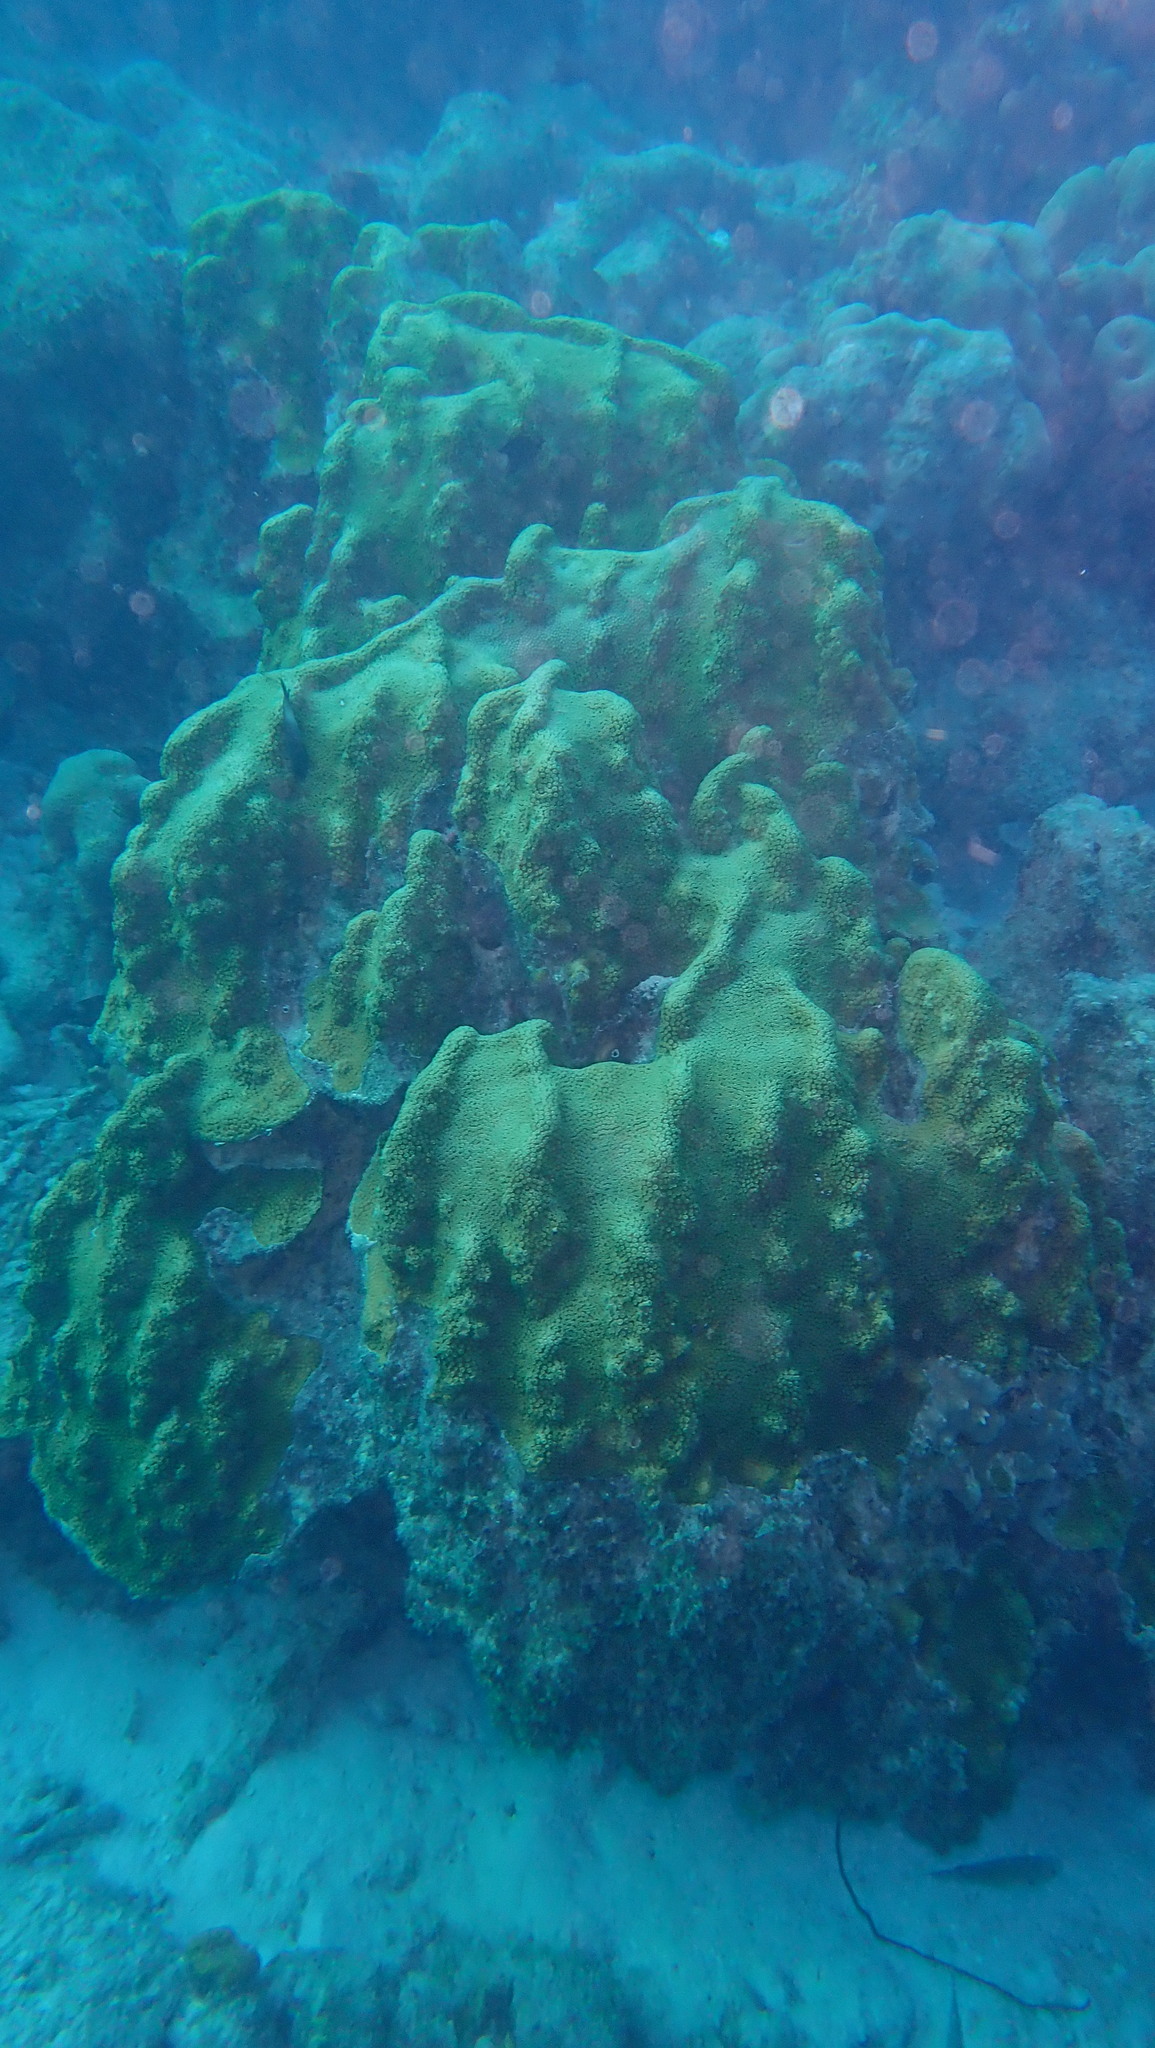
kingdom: Animalia
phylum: Cnidaria
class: Anthozoa
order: Scleractinia
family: Merulinidae
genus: Orbicella
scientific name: Orbicella faveolata
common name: Mountainous star coral
